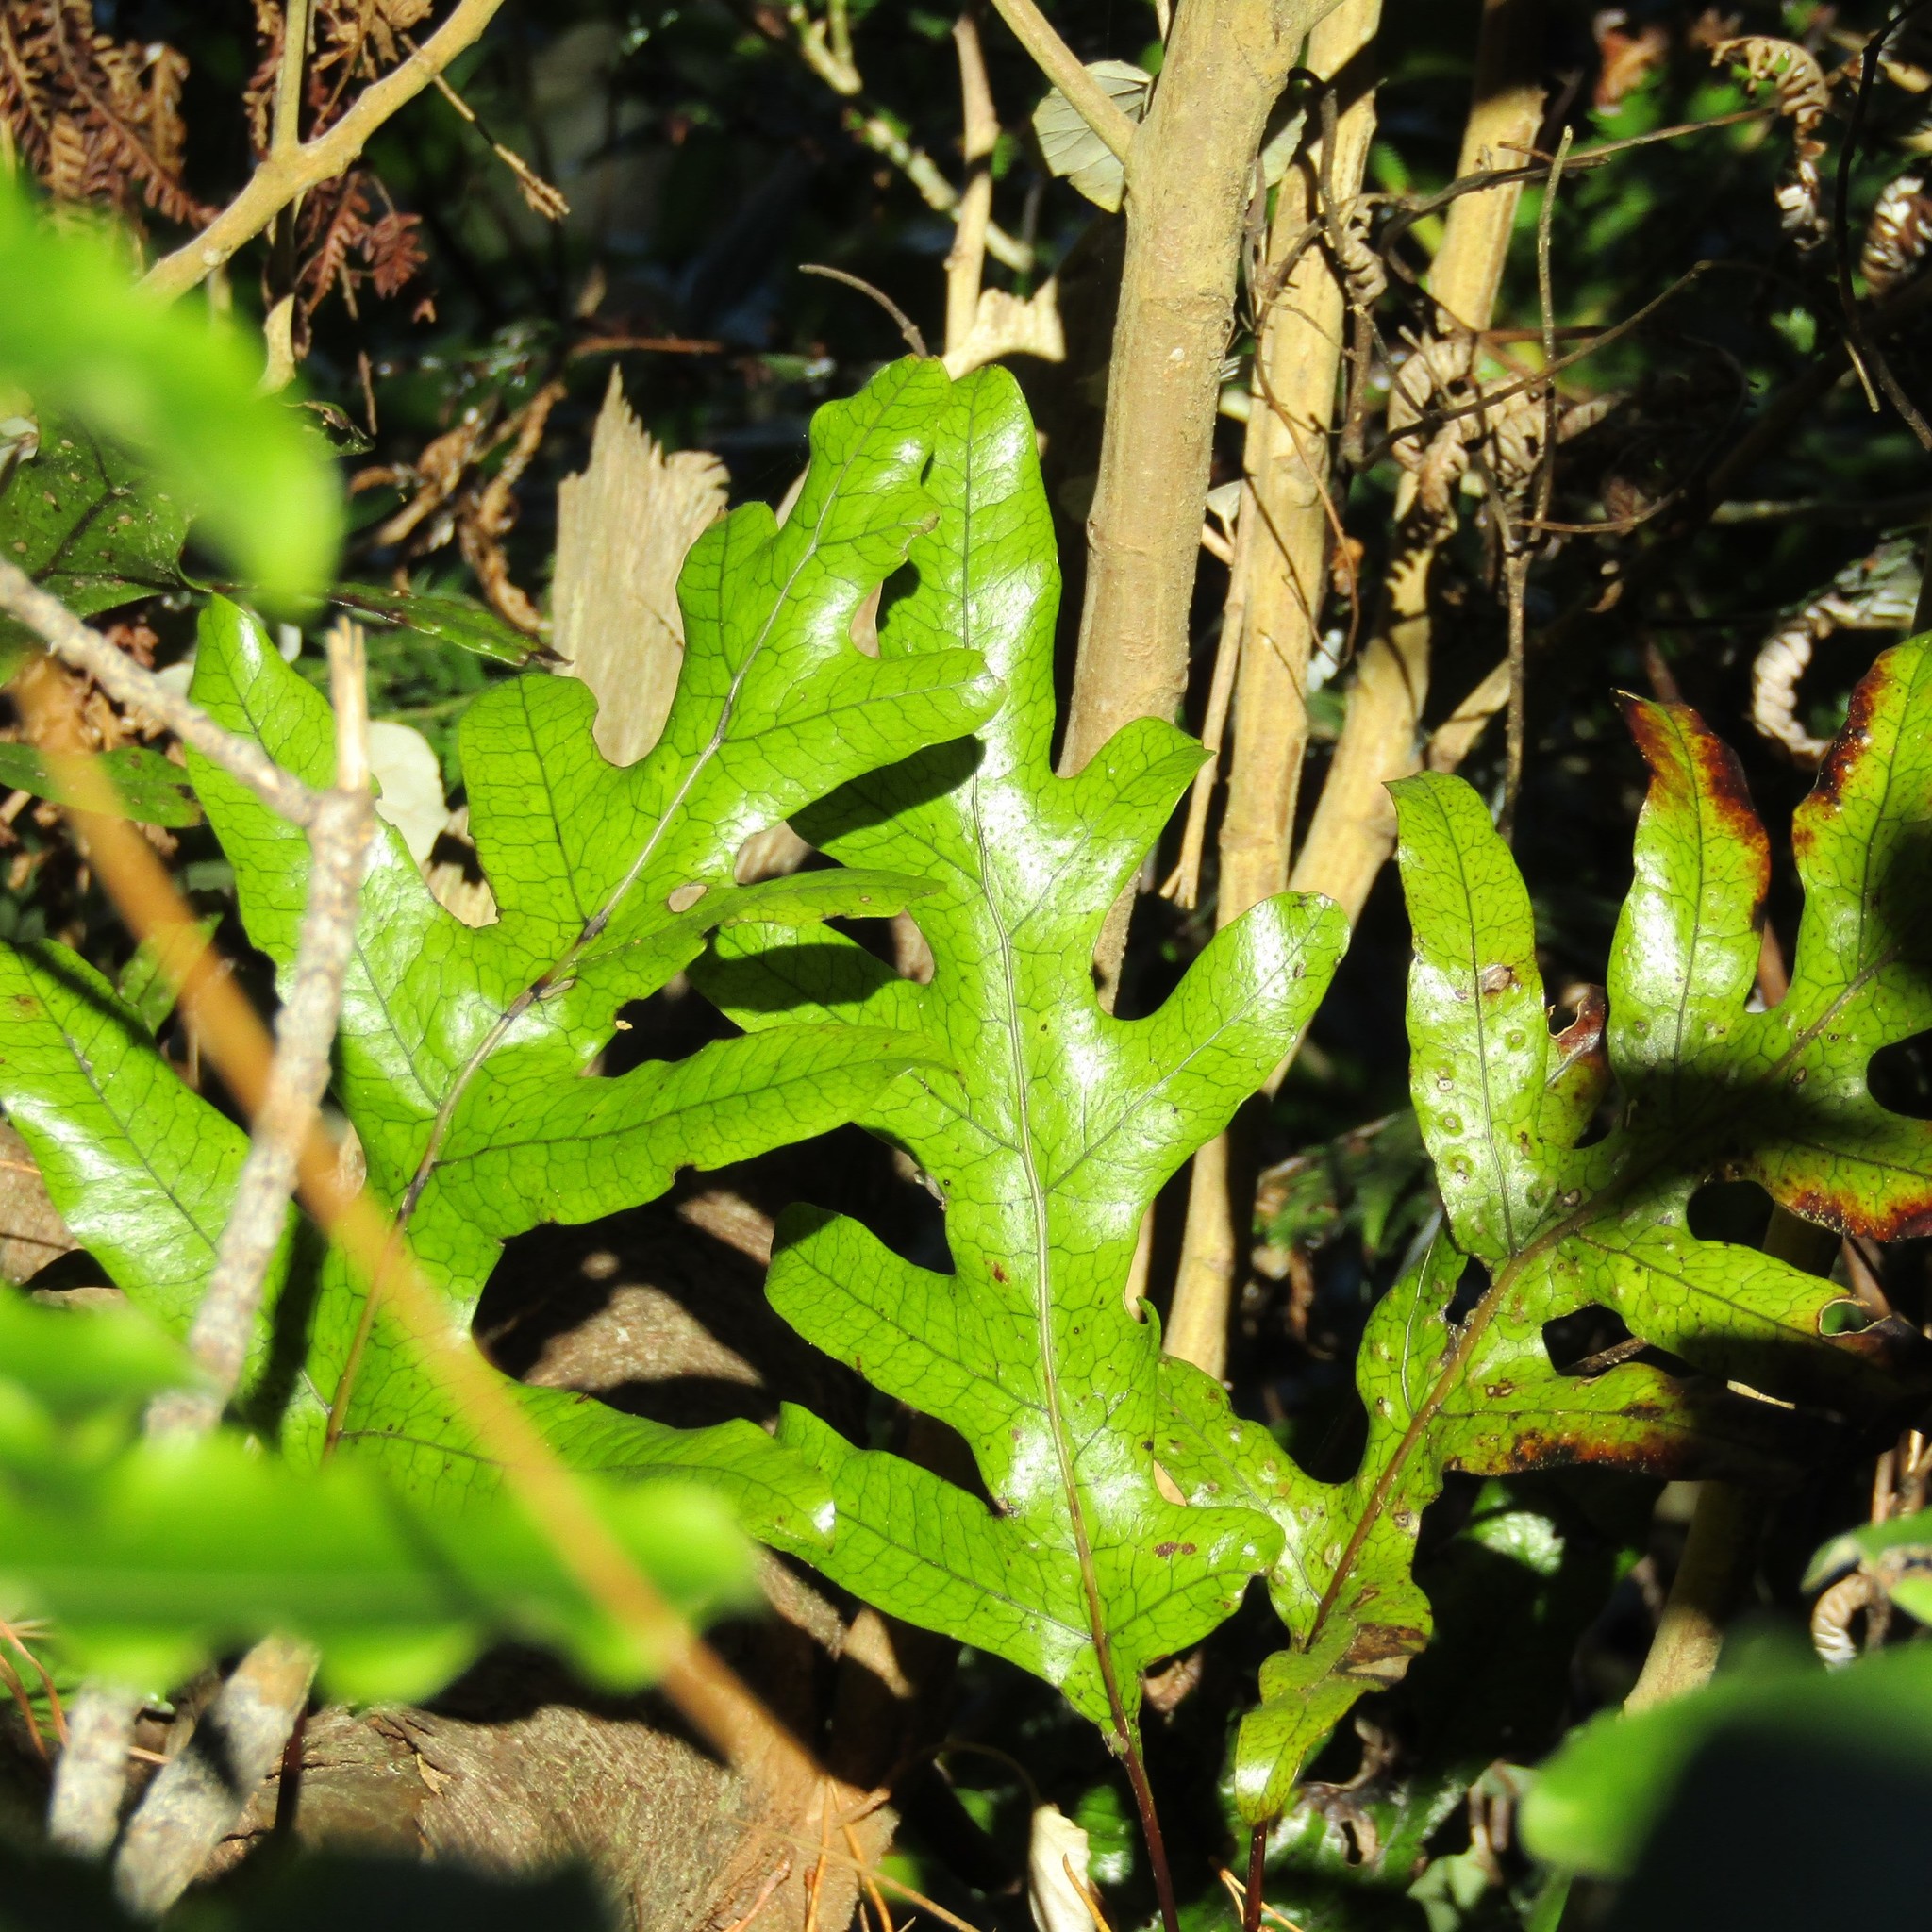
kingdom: Plantae
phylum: Tracheophyta
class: Polypodiopsida
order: Polypodiales
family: Polypodiaceae
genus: Lecanopteris
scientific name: Lecanopteris pustulata
